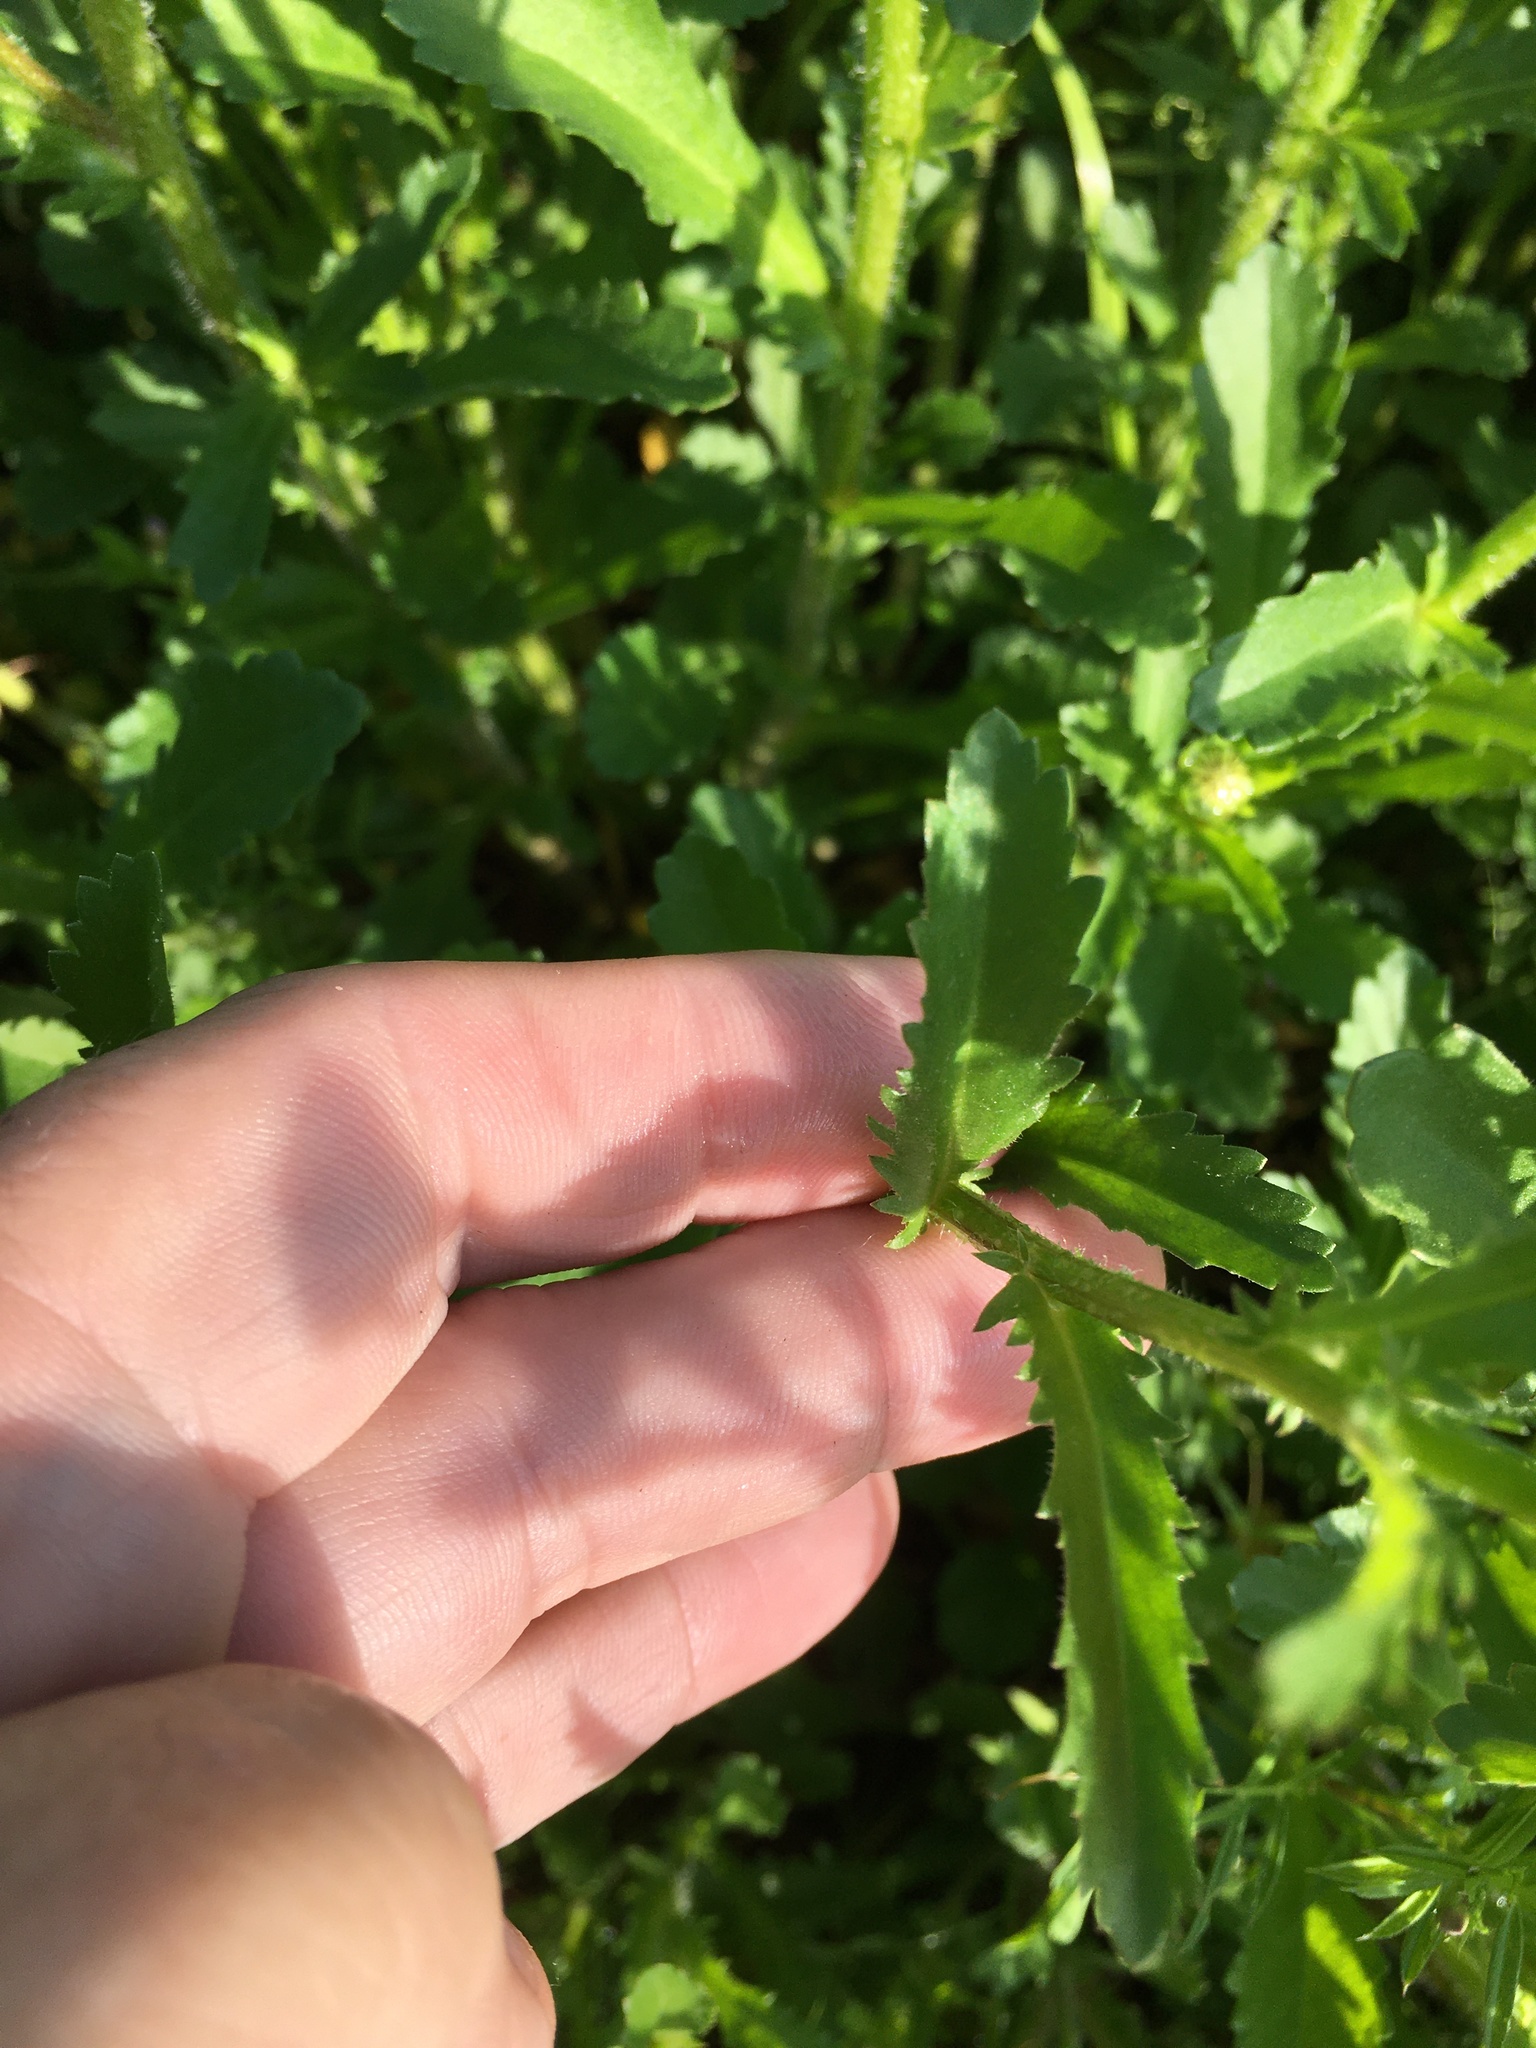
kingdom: Plantae
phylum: Tracheophyta
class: Magnoliopsida
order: Asterales
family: Asteraceae
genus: Leucanthemum
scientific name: Leucanthemum vulgare
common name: Oxeye daisy
